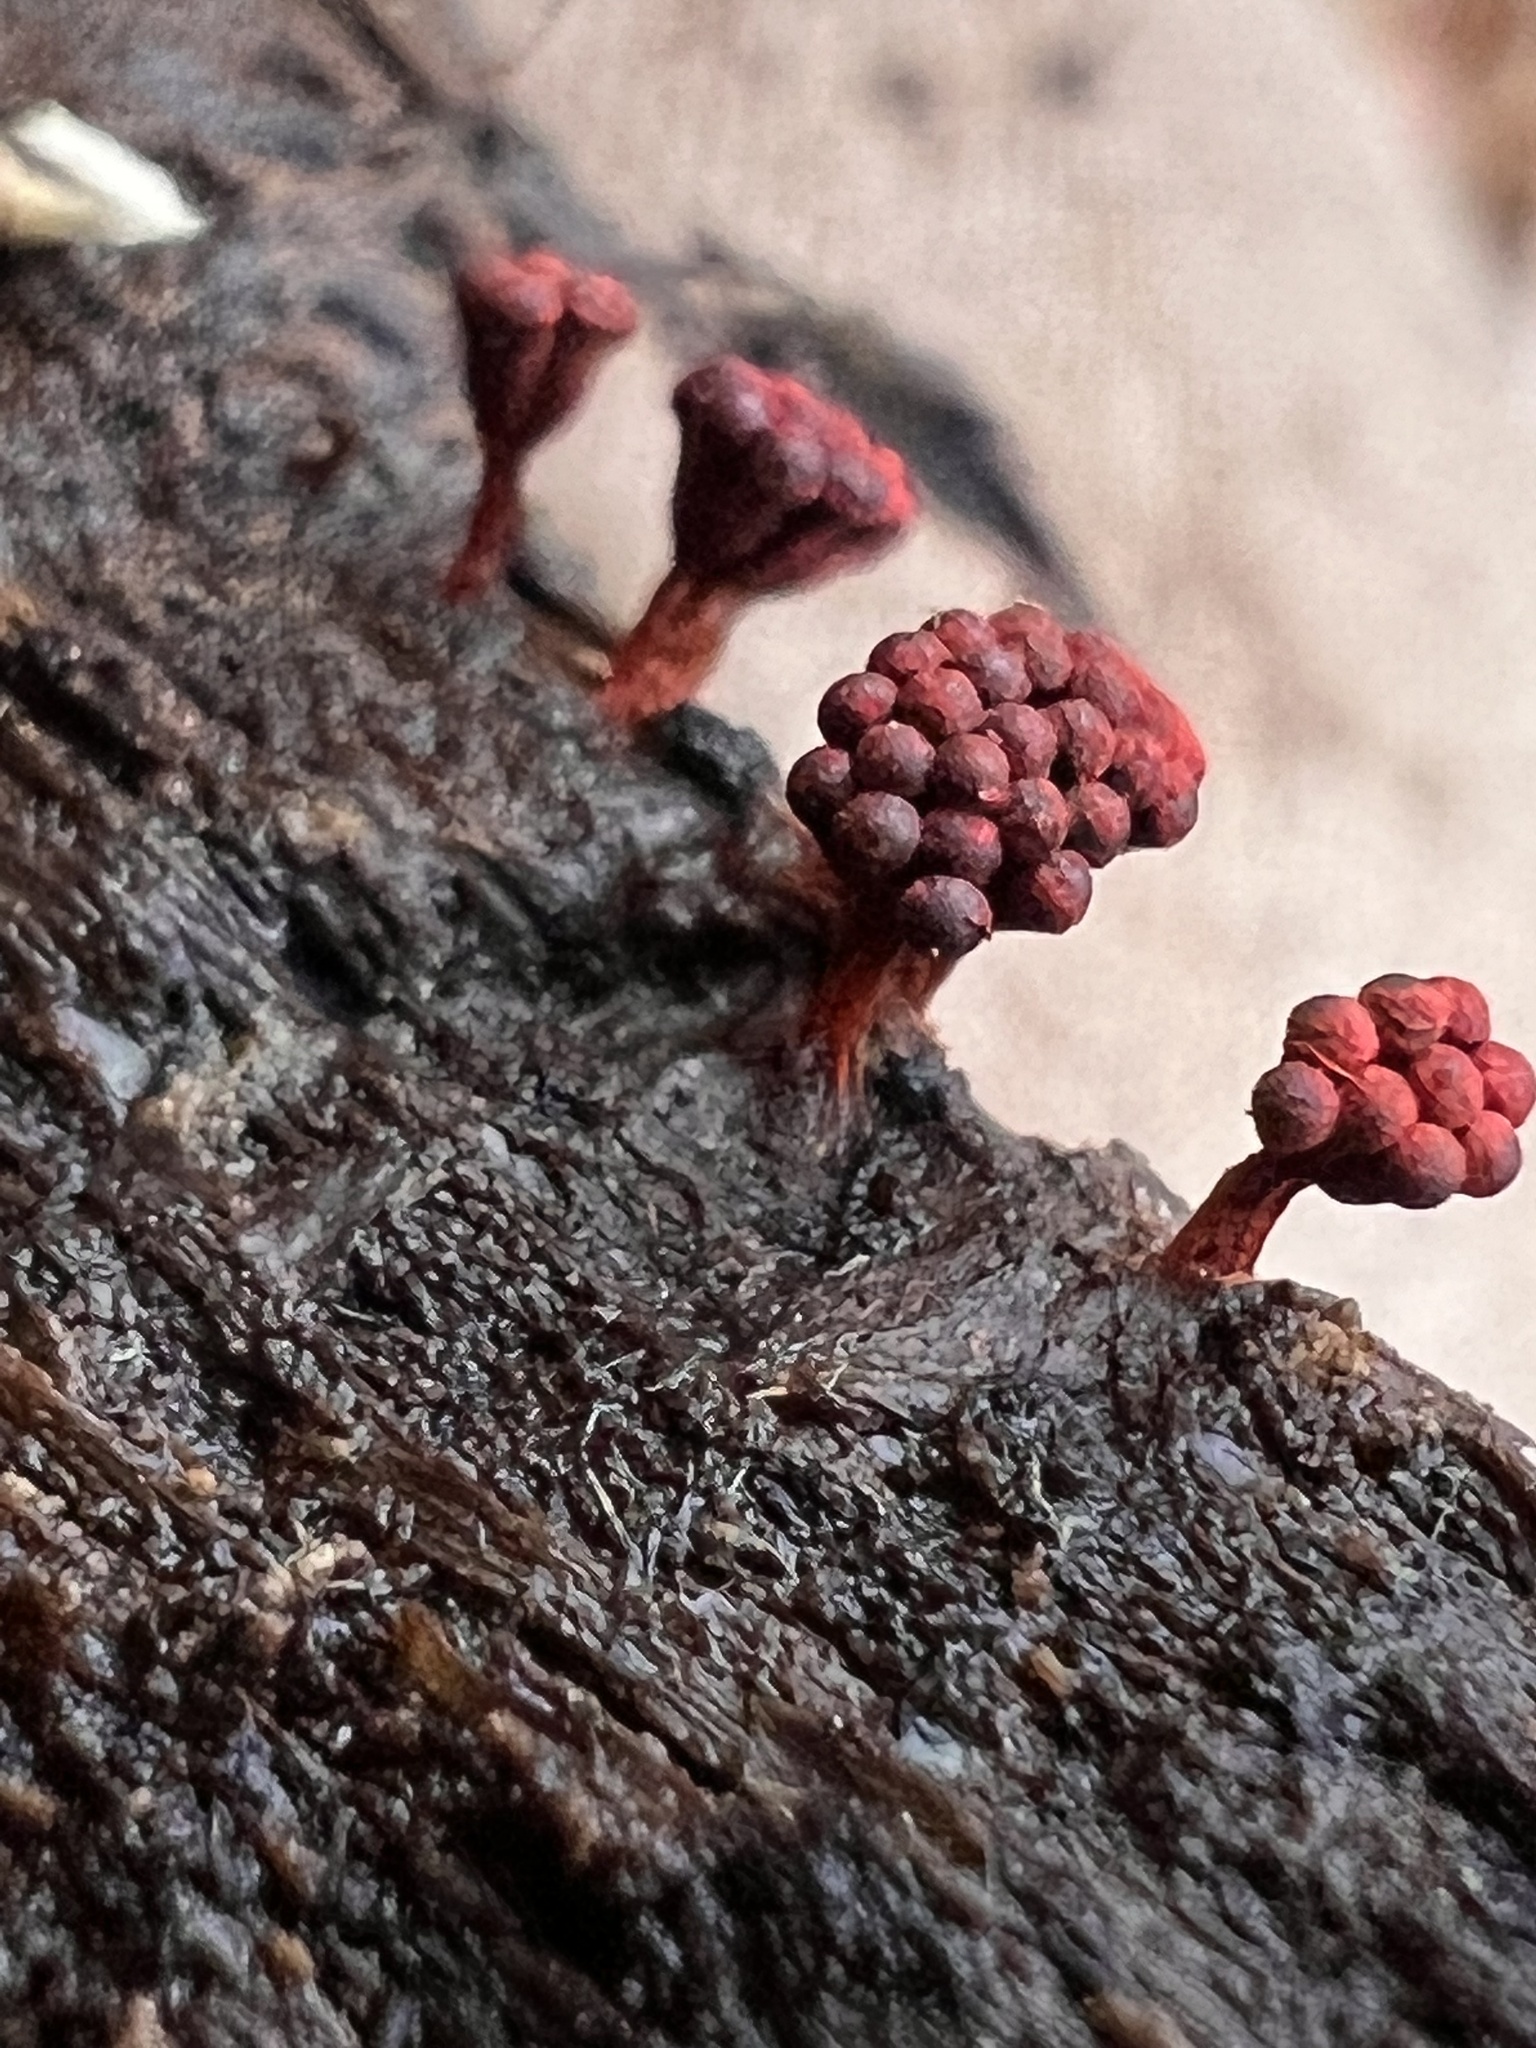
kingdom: Protozoa
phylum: Mycetozoa
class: Myxomycetes
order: Trichiales
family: Trichiaceae
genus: Metatrichia
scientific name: Metatrichia vesparia
